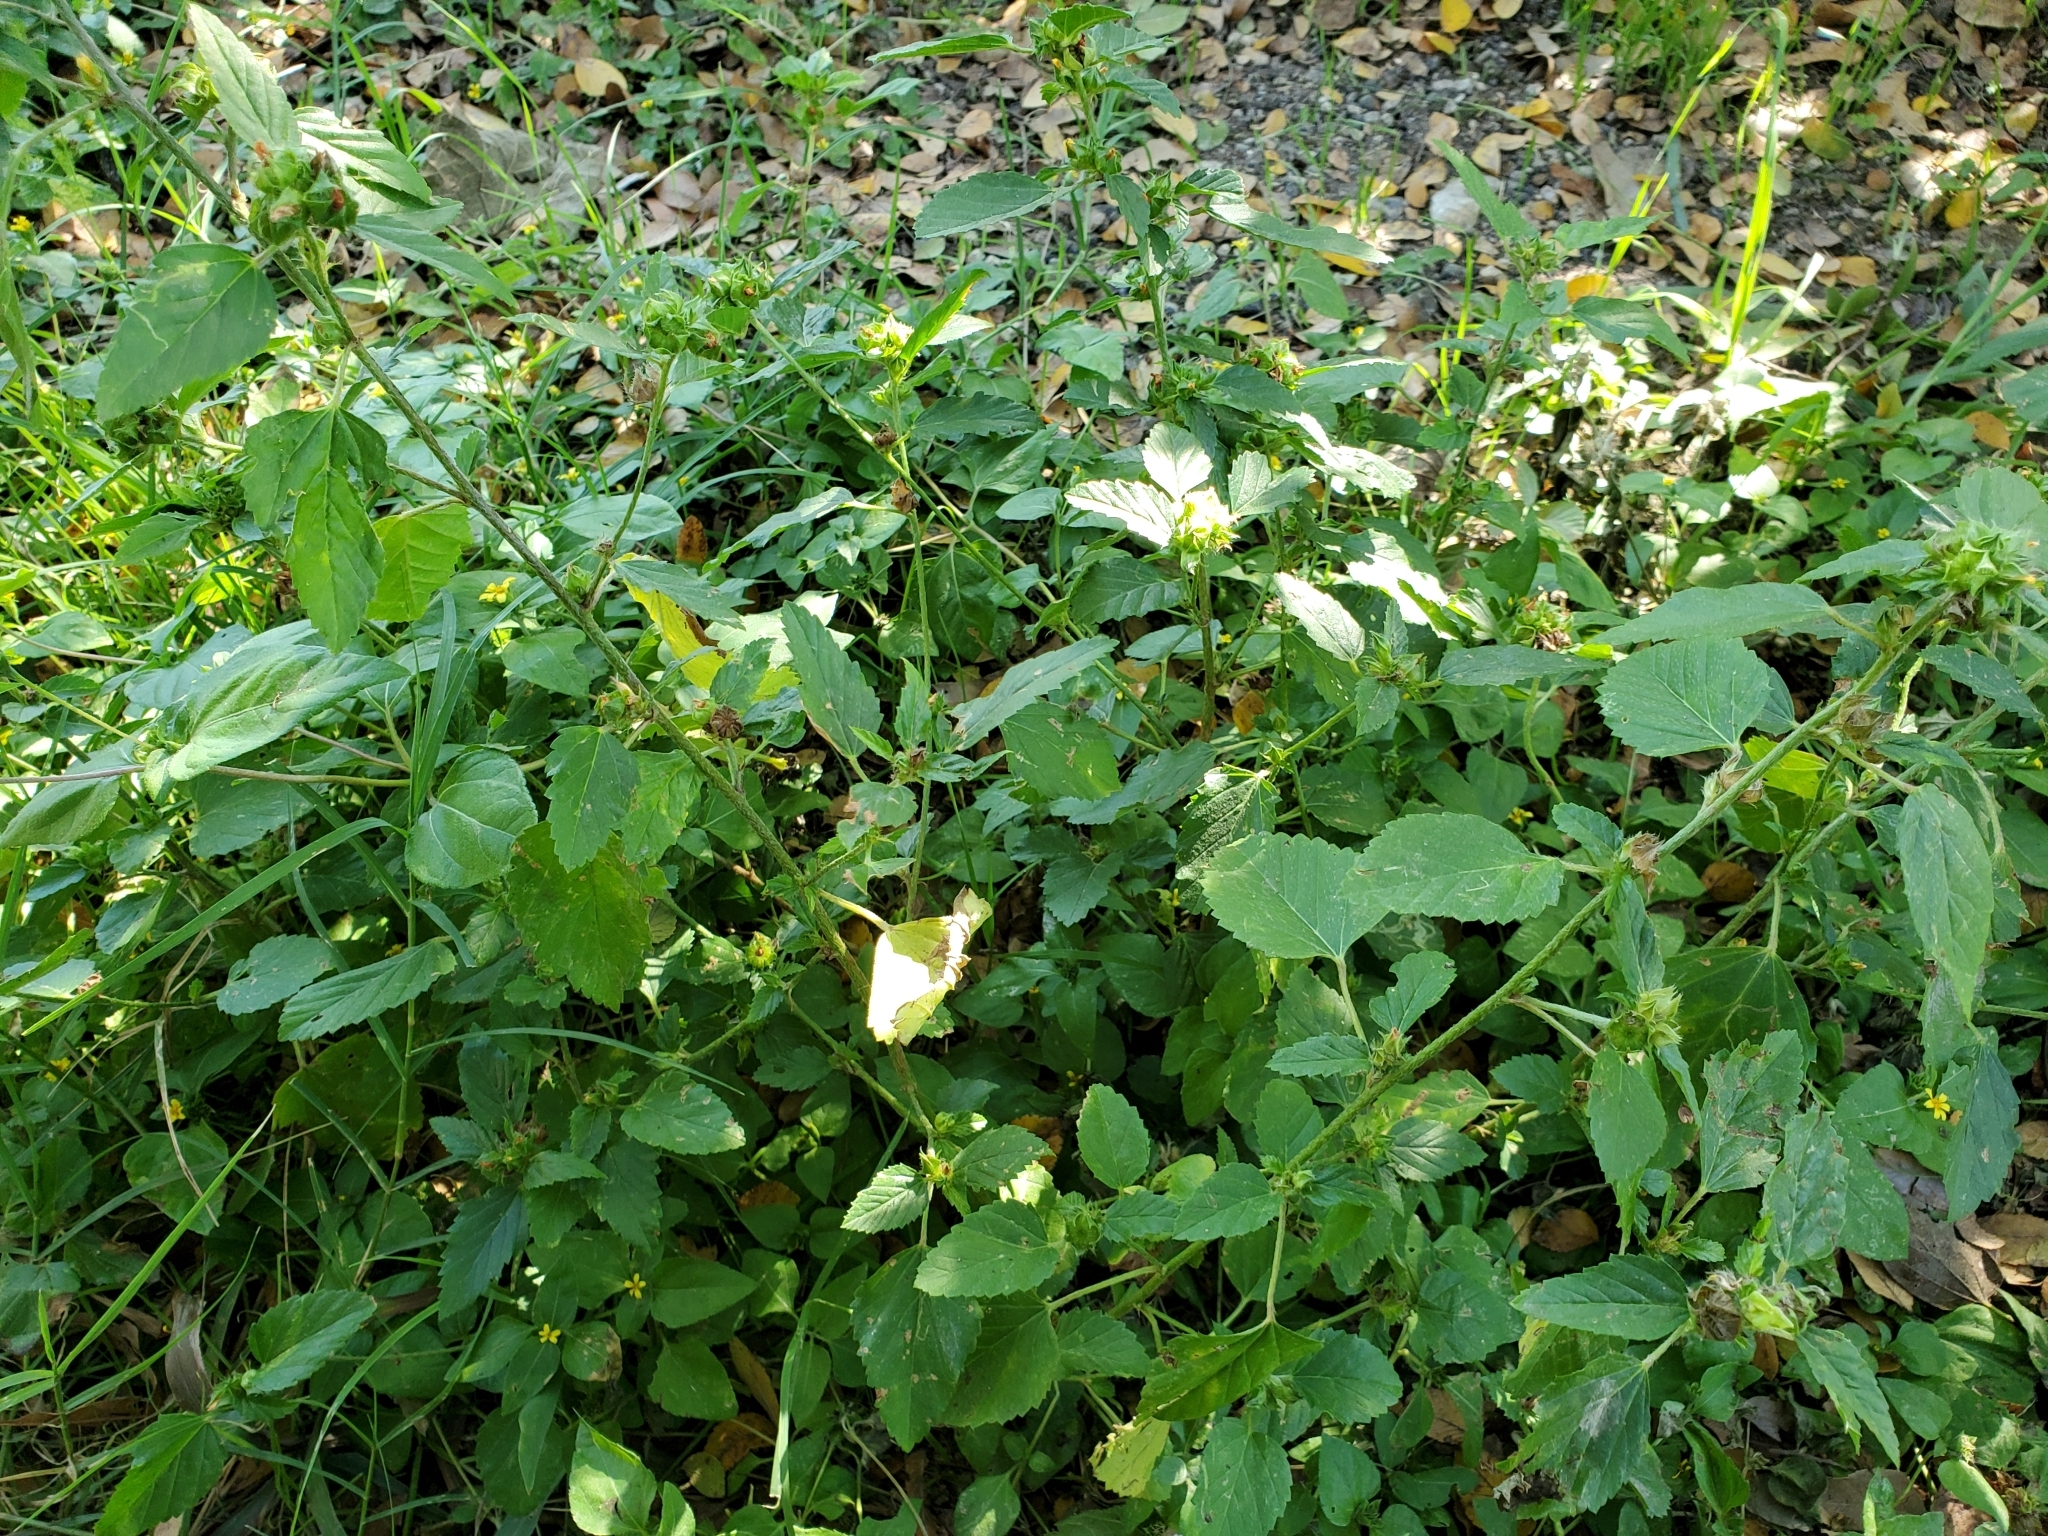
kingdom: Plantae
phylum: Tracheophyta
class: Magnoliopsida
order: Malvales
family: Malvaceae
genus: Malvastrum
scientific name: Malvastrum coromandelianum
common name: Threelobe false mallow
